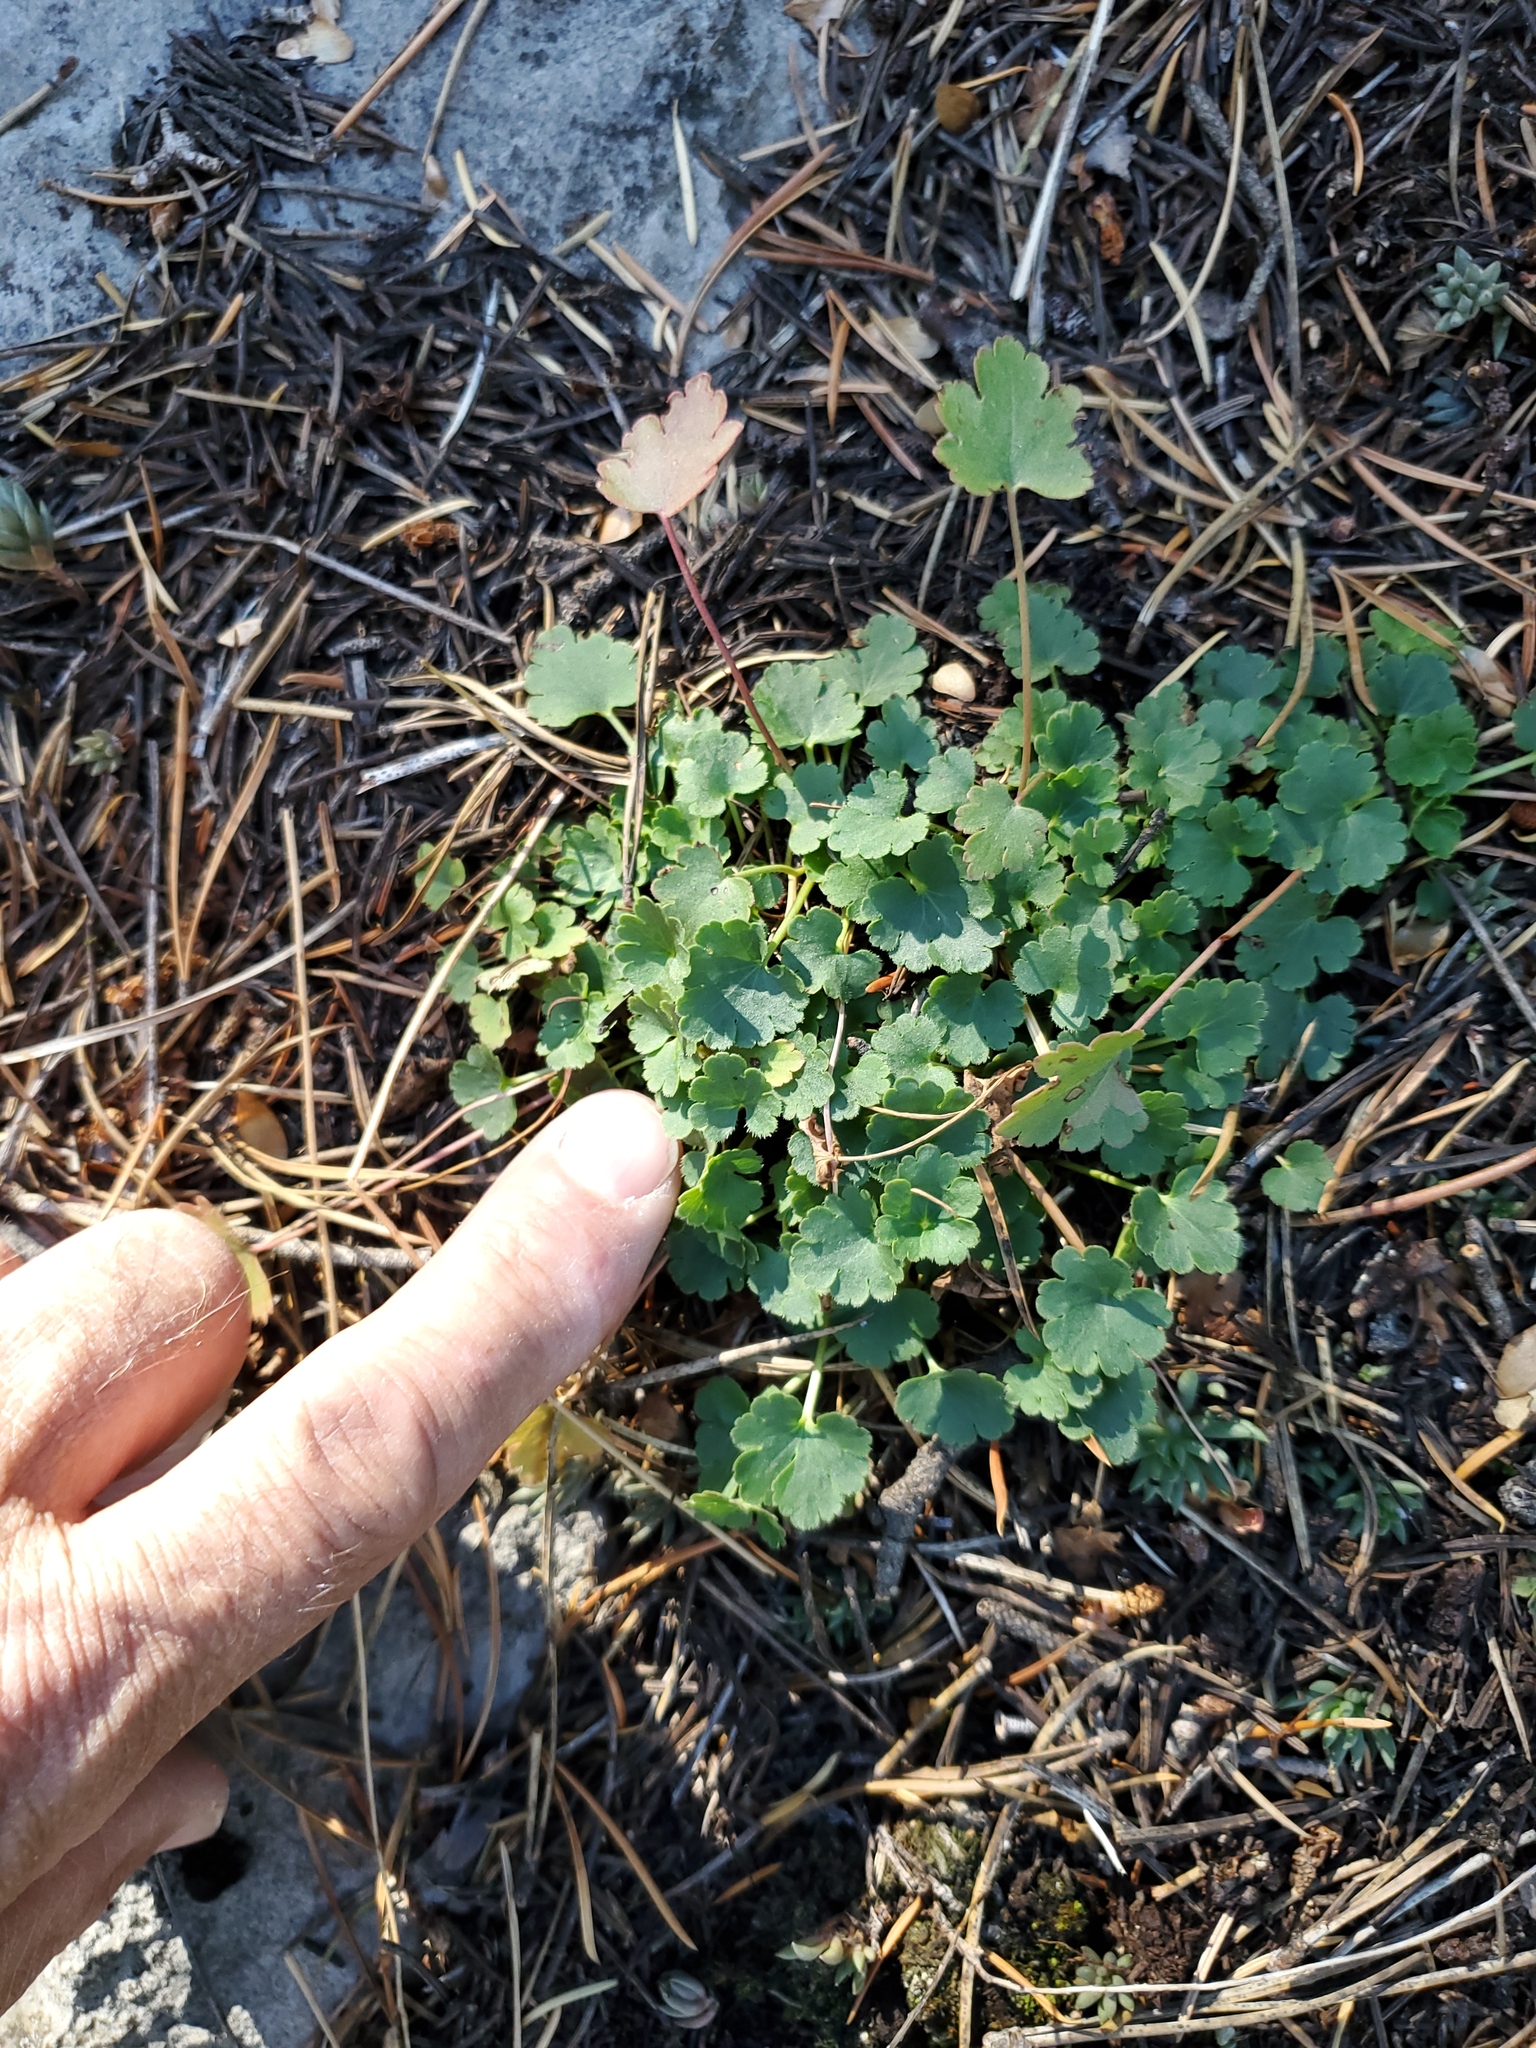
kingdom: Plantae
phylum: Tracheophyta
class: Magnoliopsida
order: Saxifragales
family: Saxifragaceae
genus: Heuchera
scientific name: Heuchera parvifolia
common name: Common alumroot
